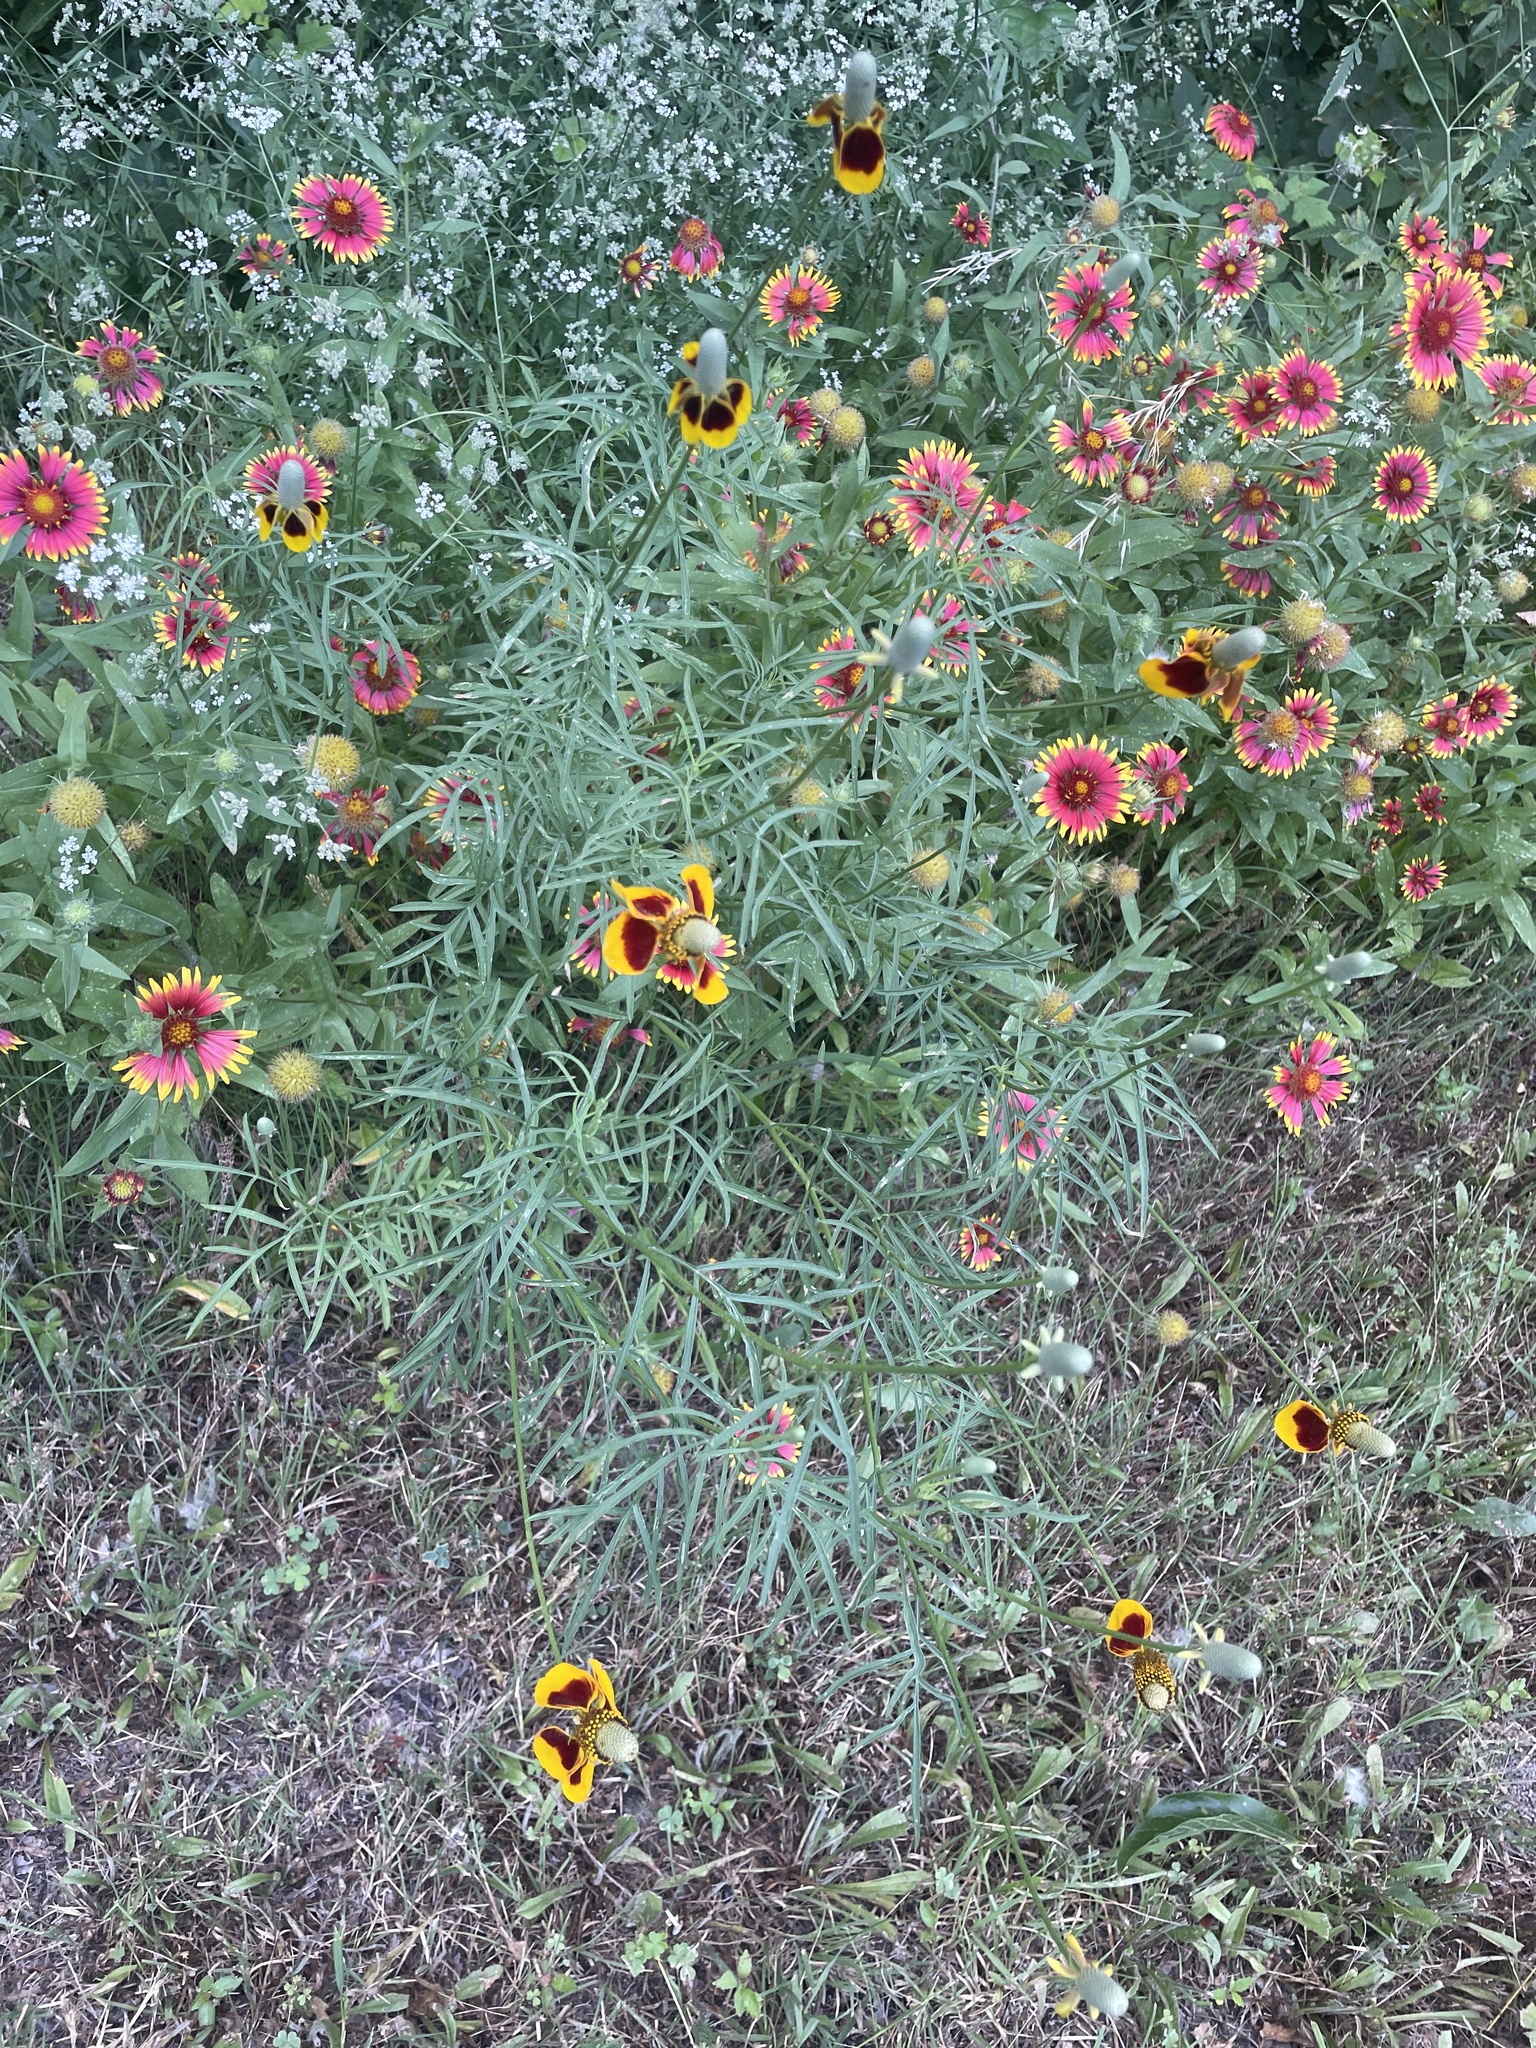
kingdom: Plantae
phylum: Tracheophyta
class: Magnoliopsida
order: Asterales
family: Asteraceae
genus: Ratibida
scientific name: Ratibida columnifera
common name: Prairie coneflower
